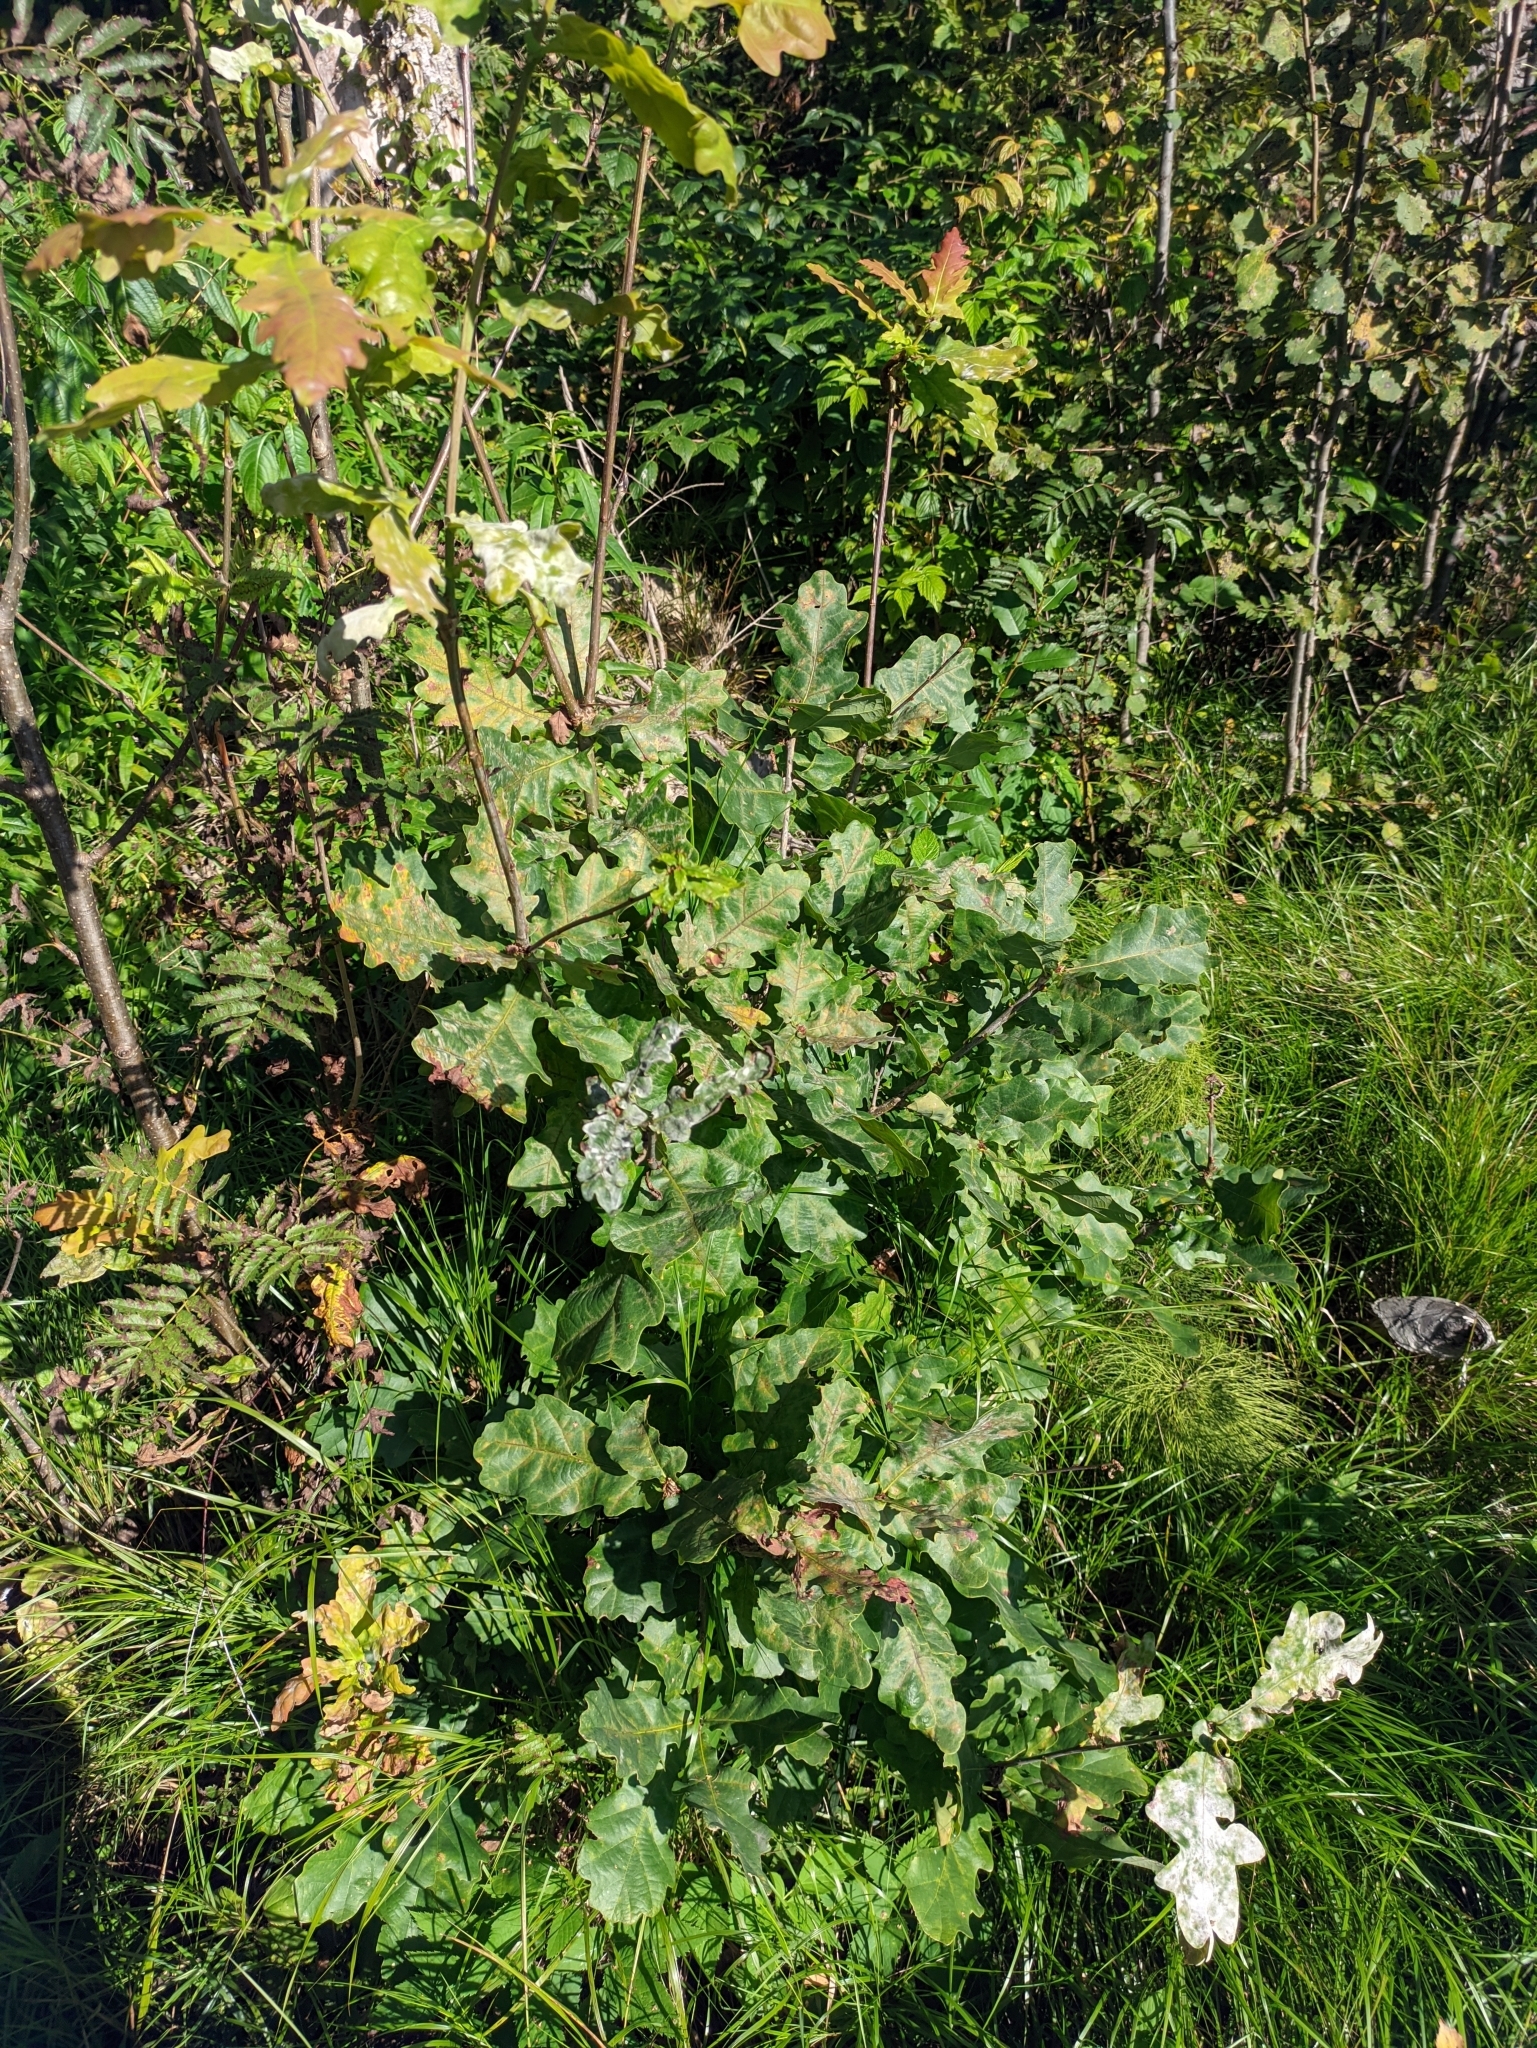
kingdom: Plantae
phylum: Tracheophyta
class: Magnoliopsida
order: Fagales
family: Fagaceae
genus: Quercus
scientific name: Quercus robur
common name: Pedunculate oak
